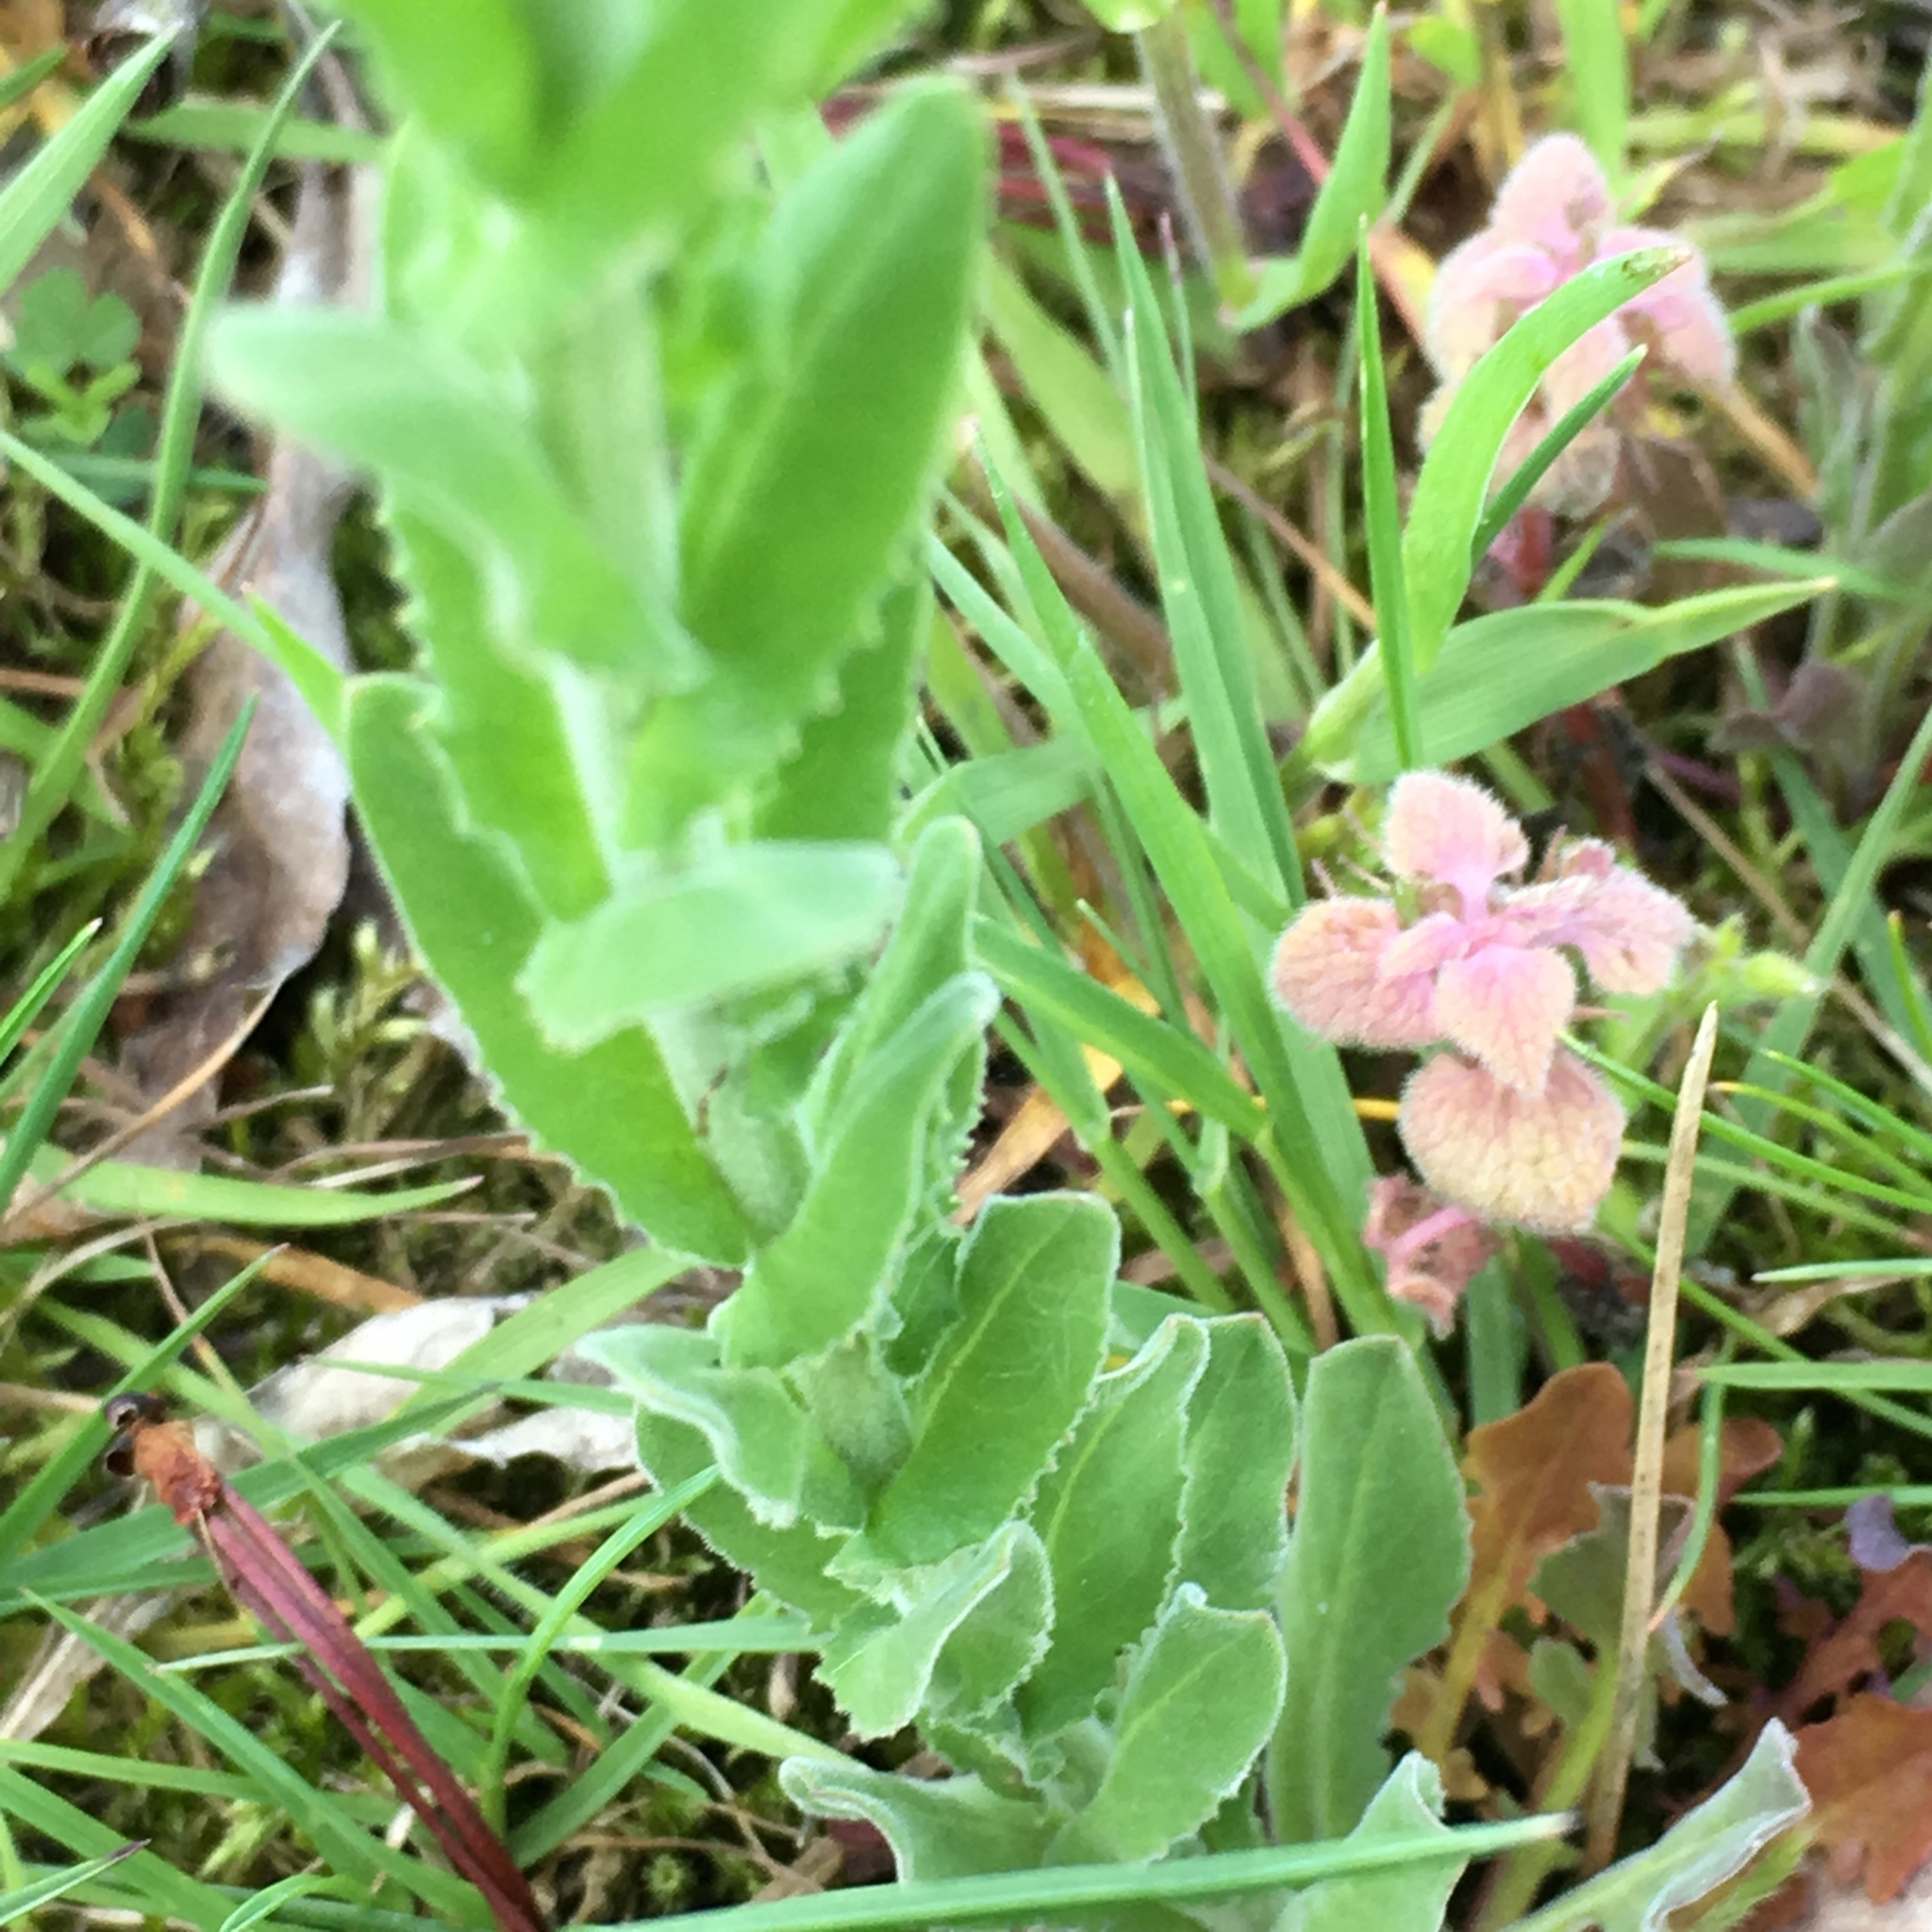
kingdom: Plantae
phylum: Tracheophyta
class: Magnoliopsida
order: Brassicales
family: Brassicaceae
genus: Lepidium
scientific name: Lepidium campestre
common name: Field pepperwort
